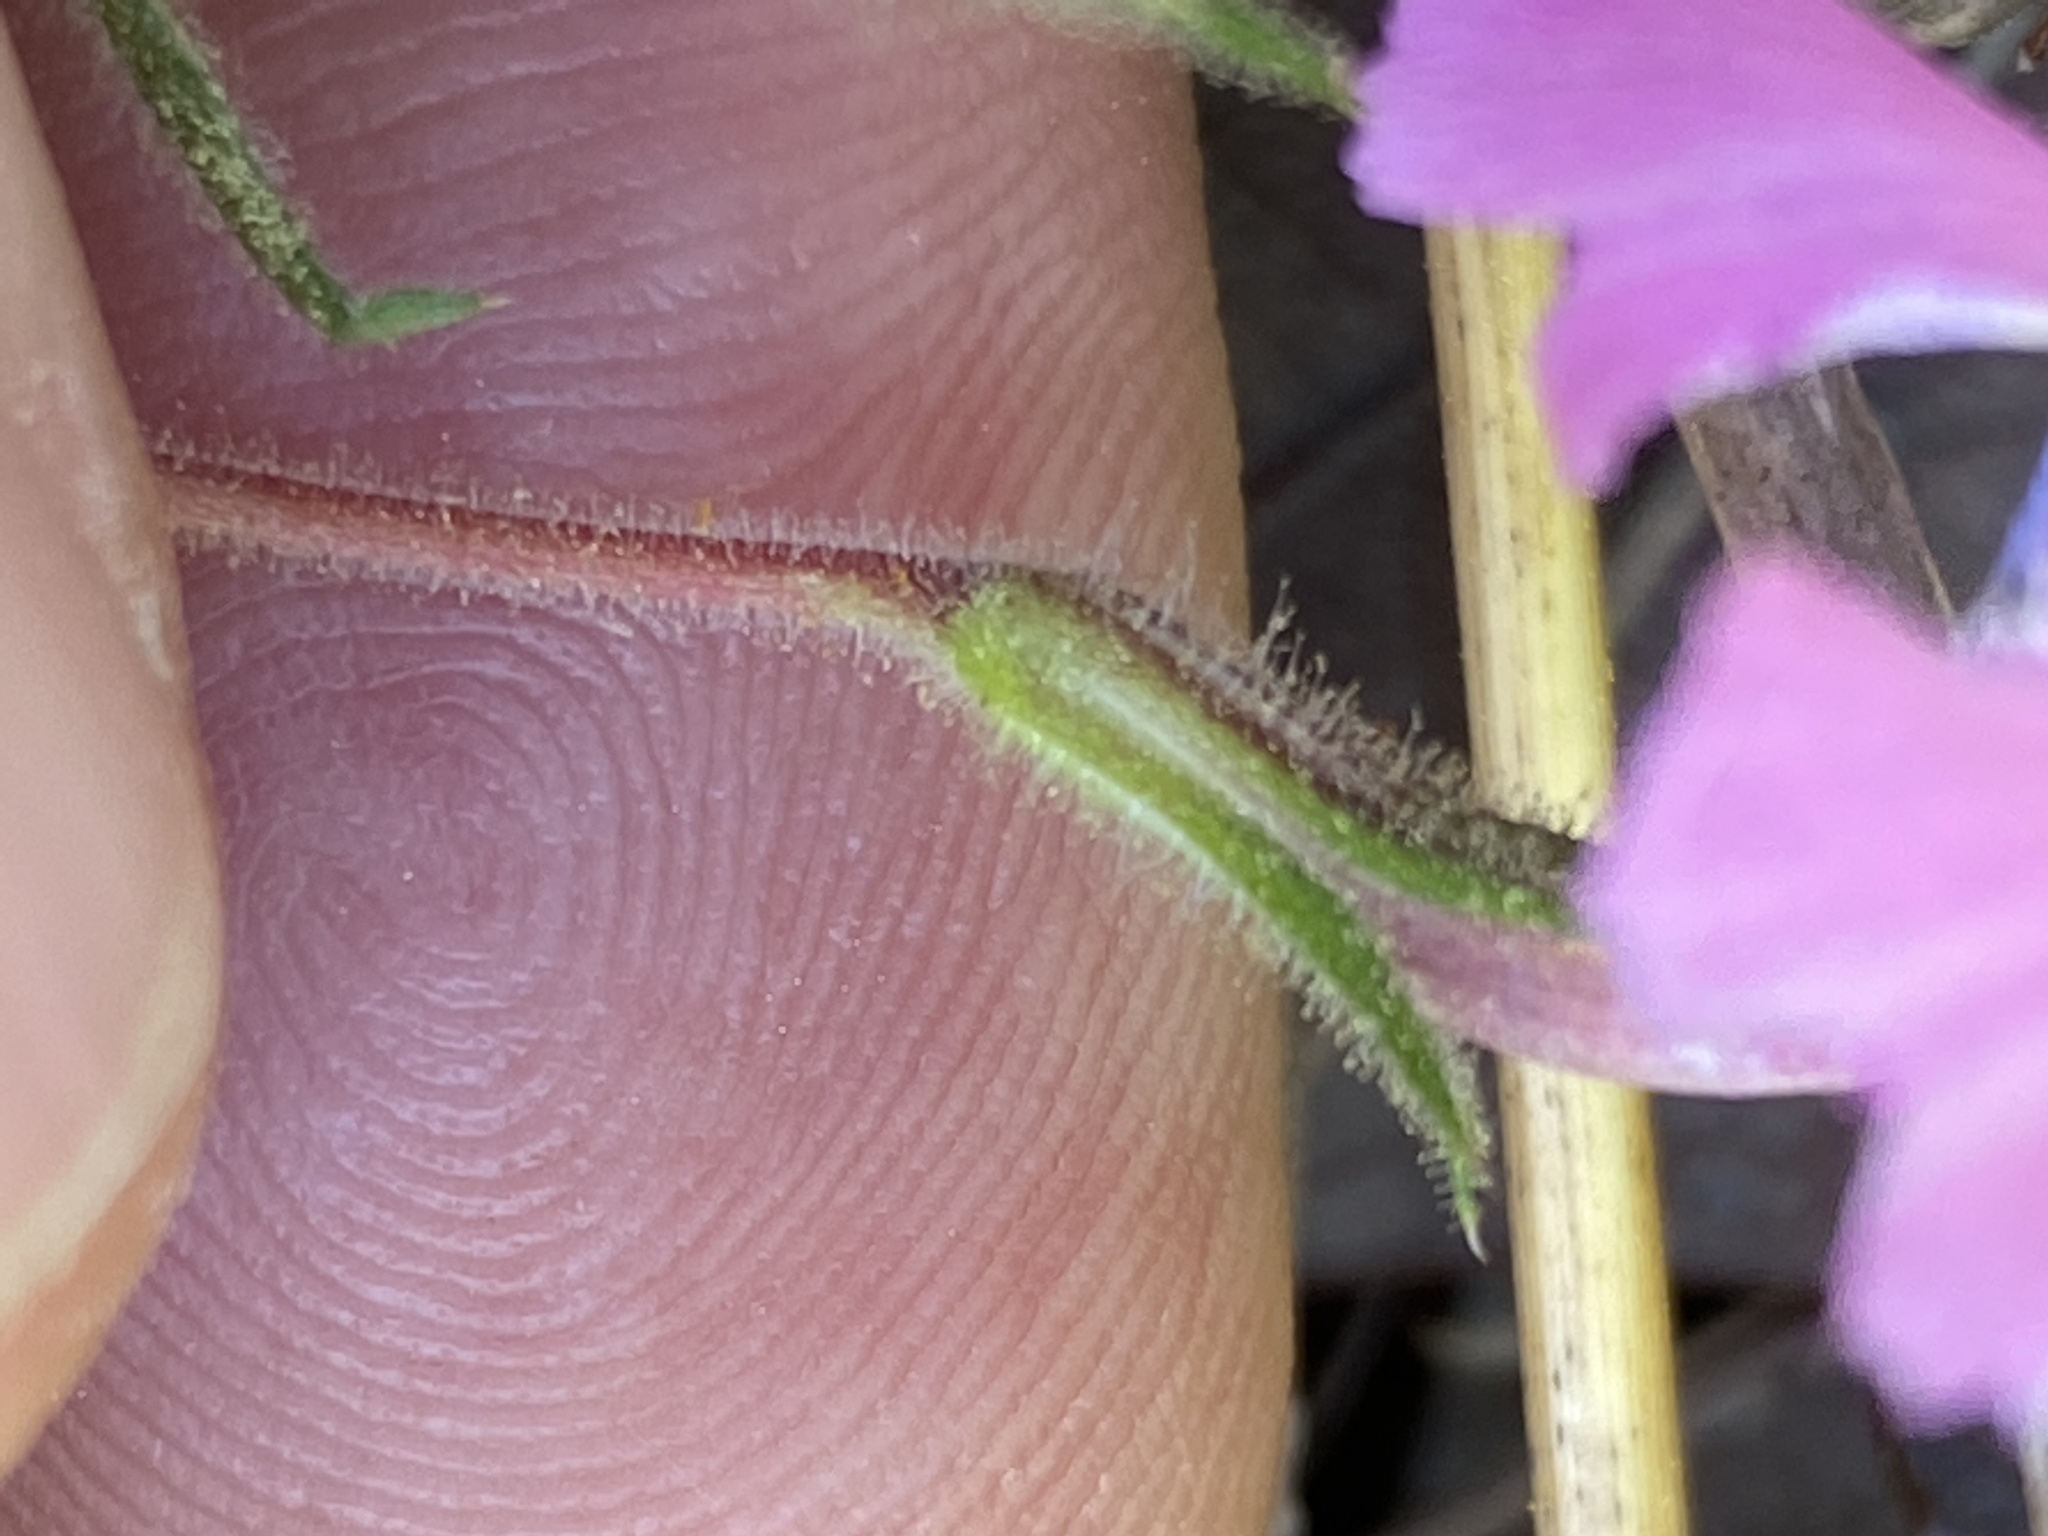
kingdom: Plantae
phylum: Tracheophyta
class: Magnoliopsida
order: Ericales
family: Polemoniaceae
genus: Phlox
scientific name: Phlox nivalis
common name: Trailing phlox
